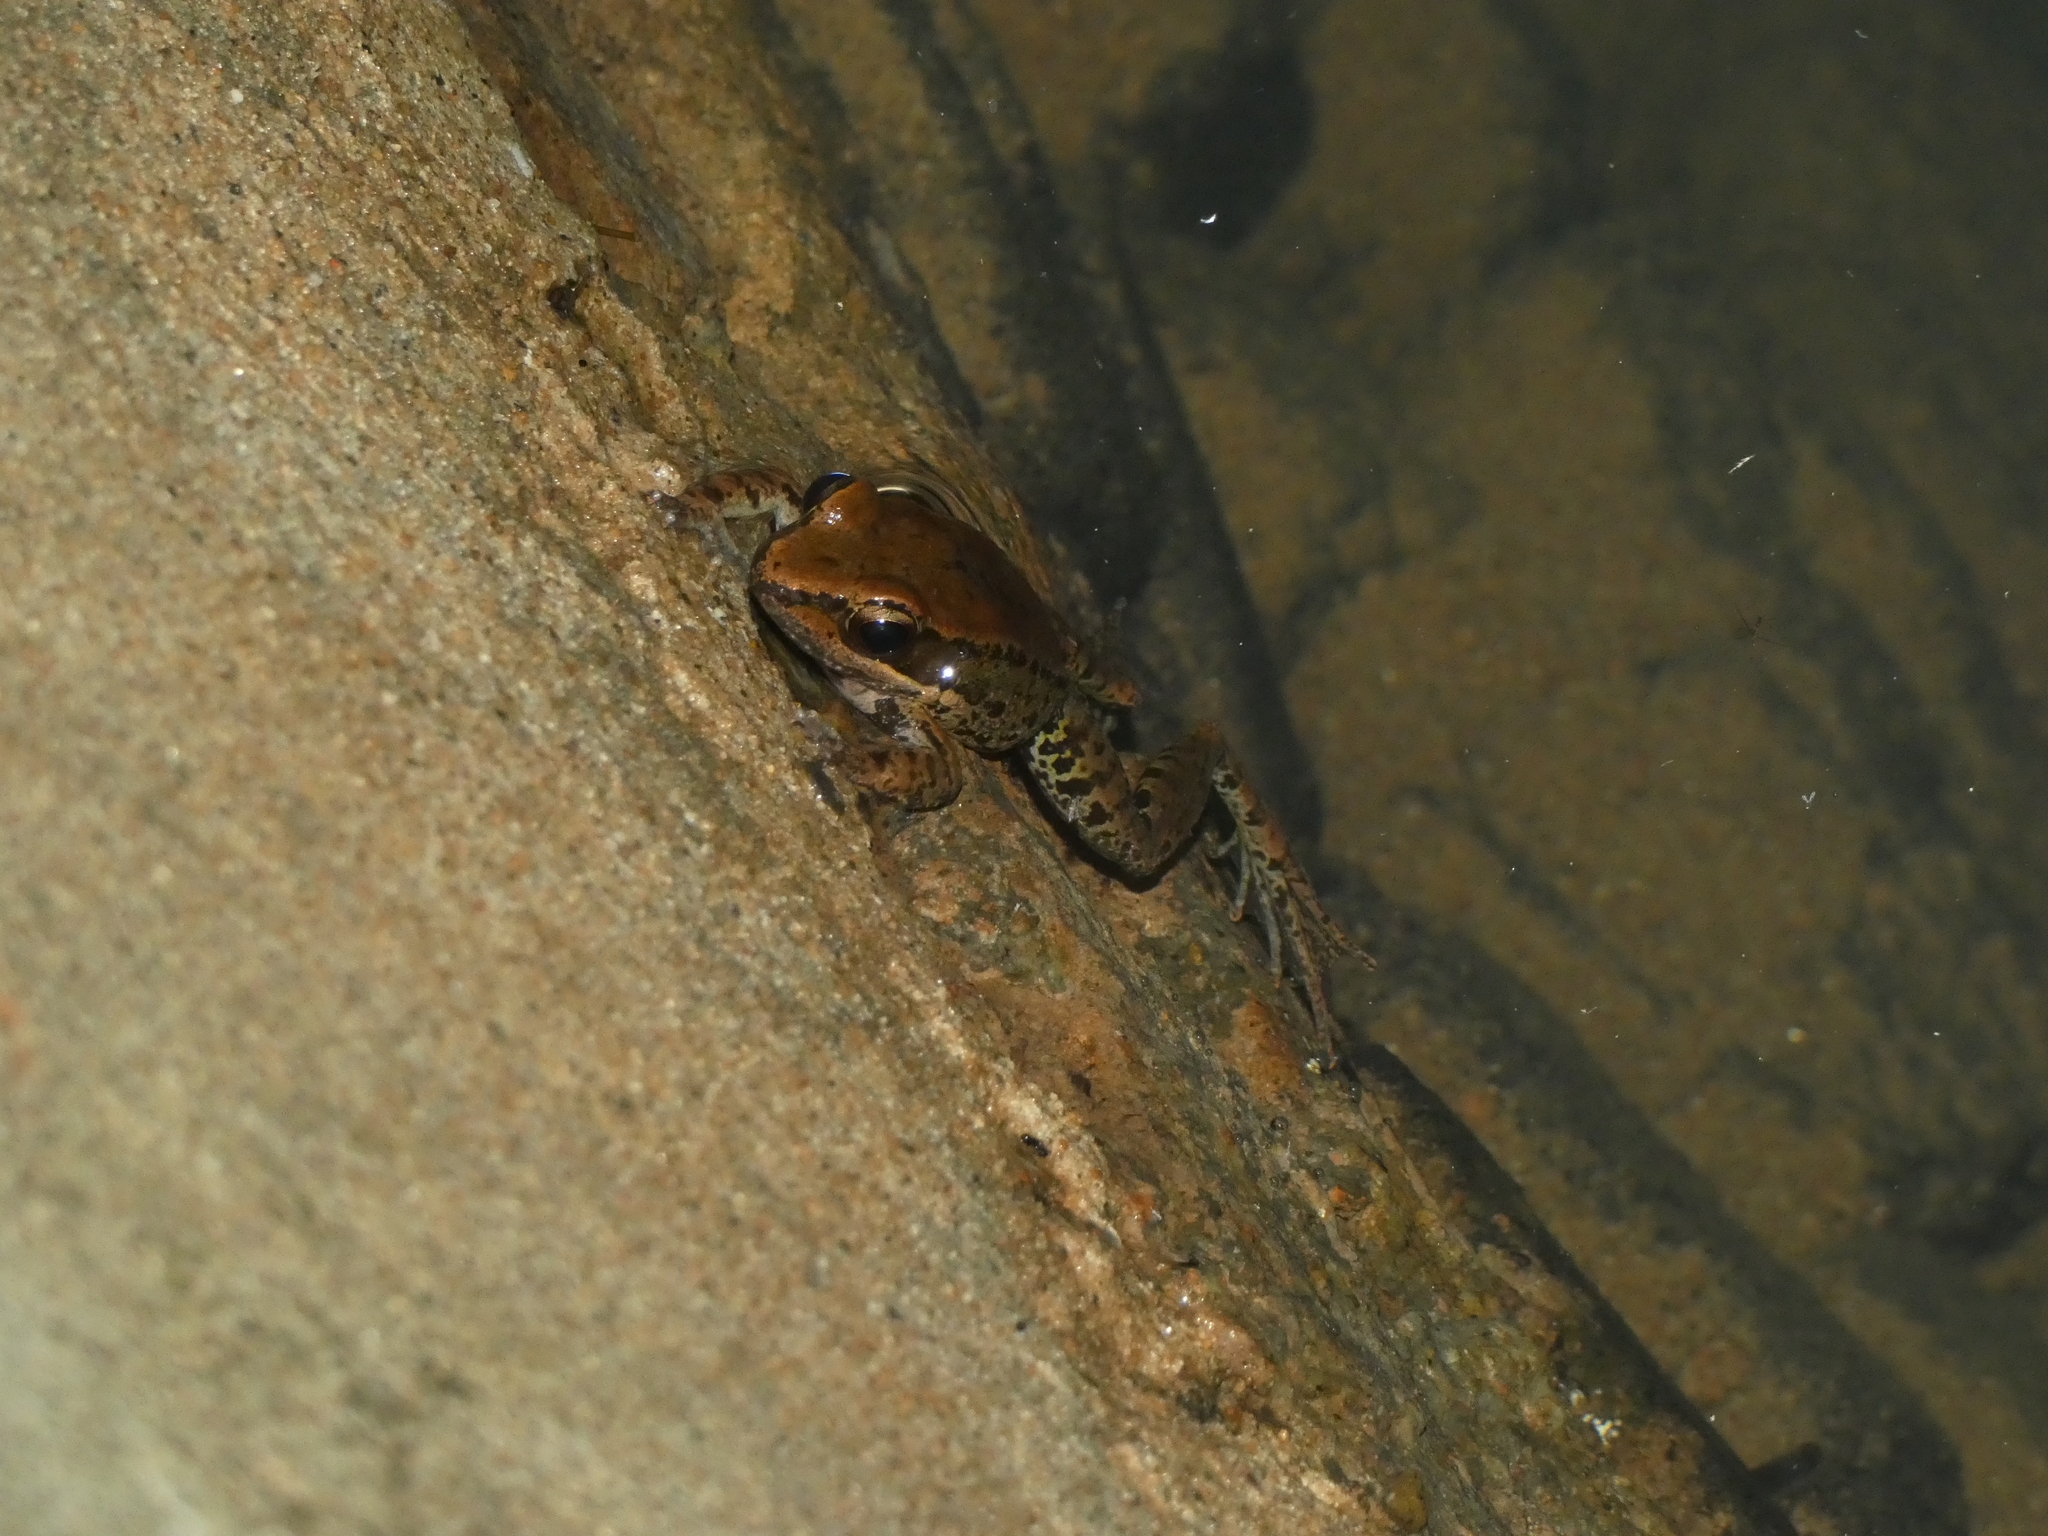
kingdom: Animalia
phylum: Chordata
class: Amphibia
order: Anura
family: Ranidae
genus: Sylvirana
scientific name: Sylvirana nigrovittata
